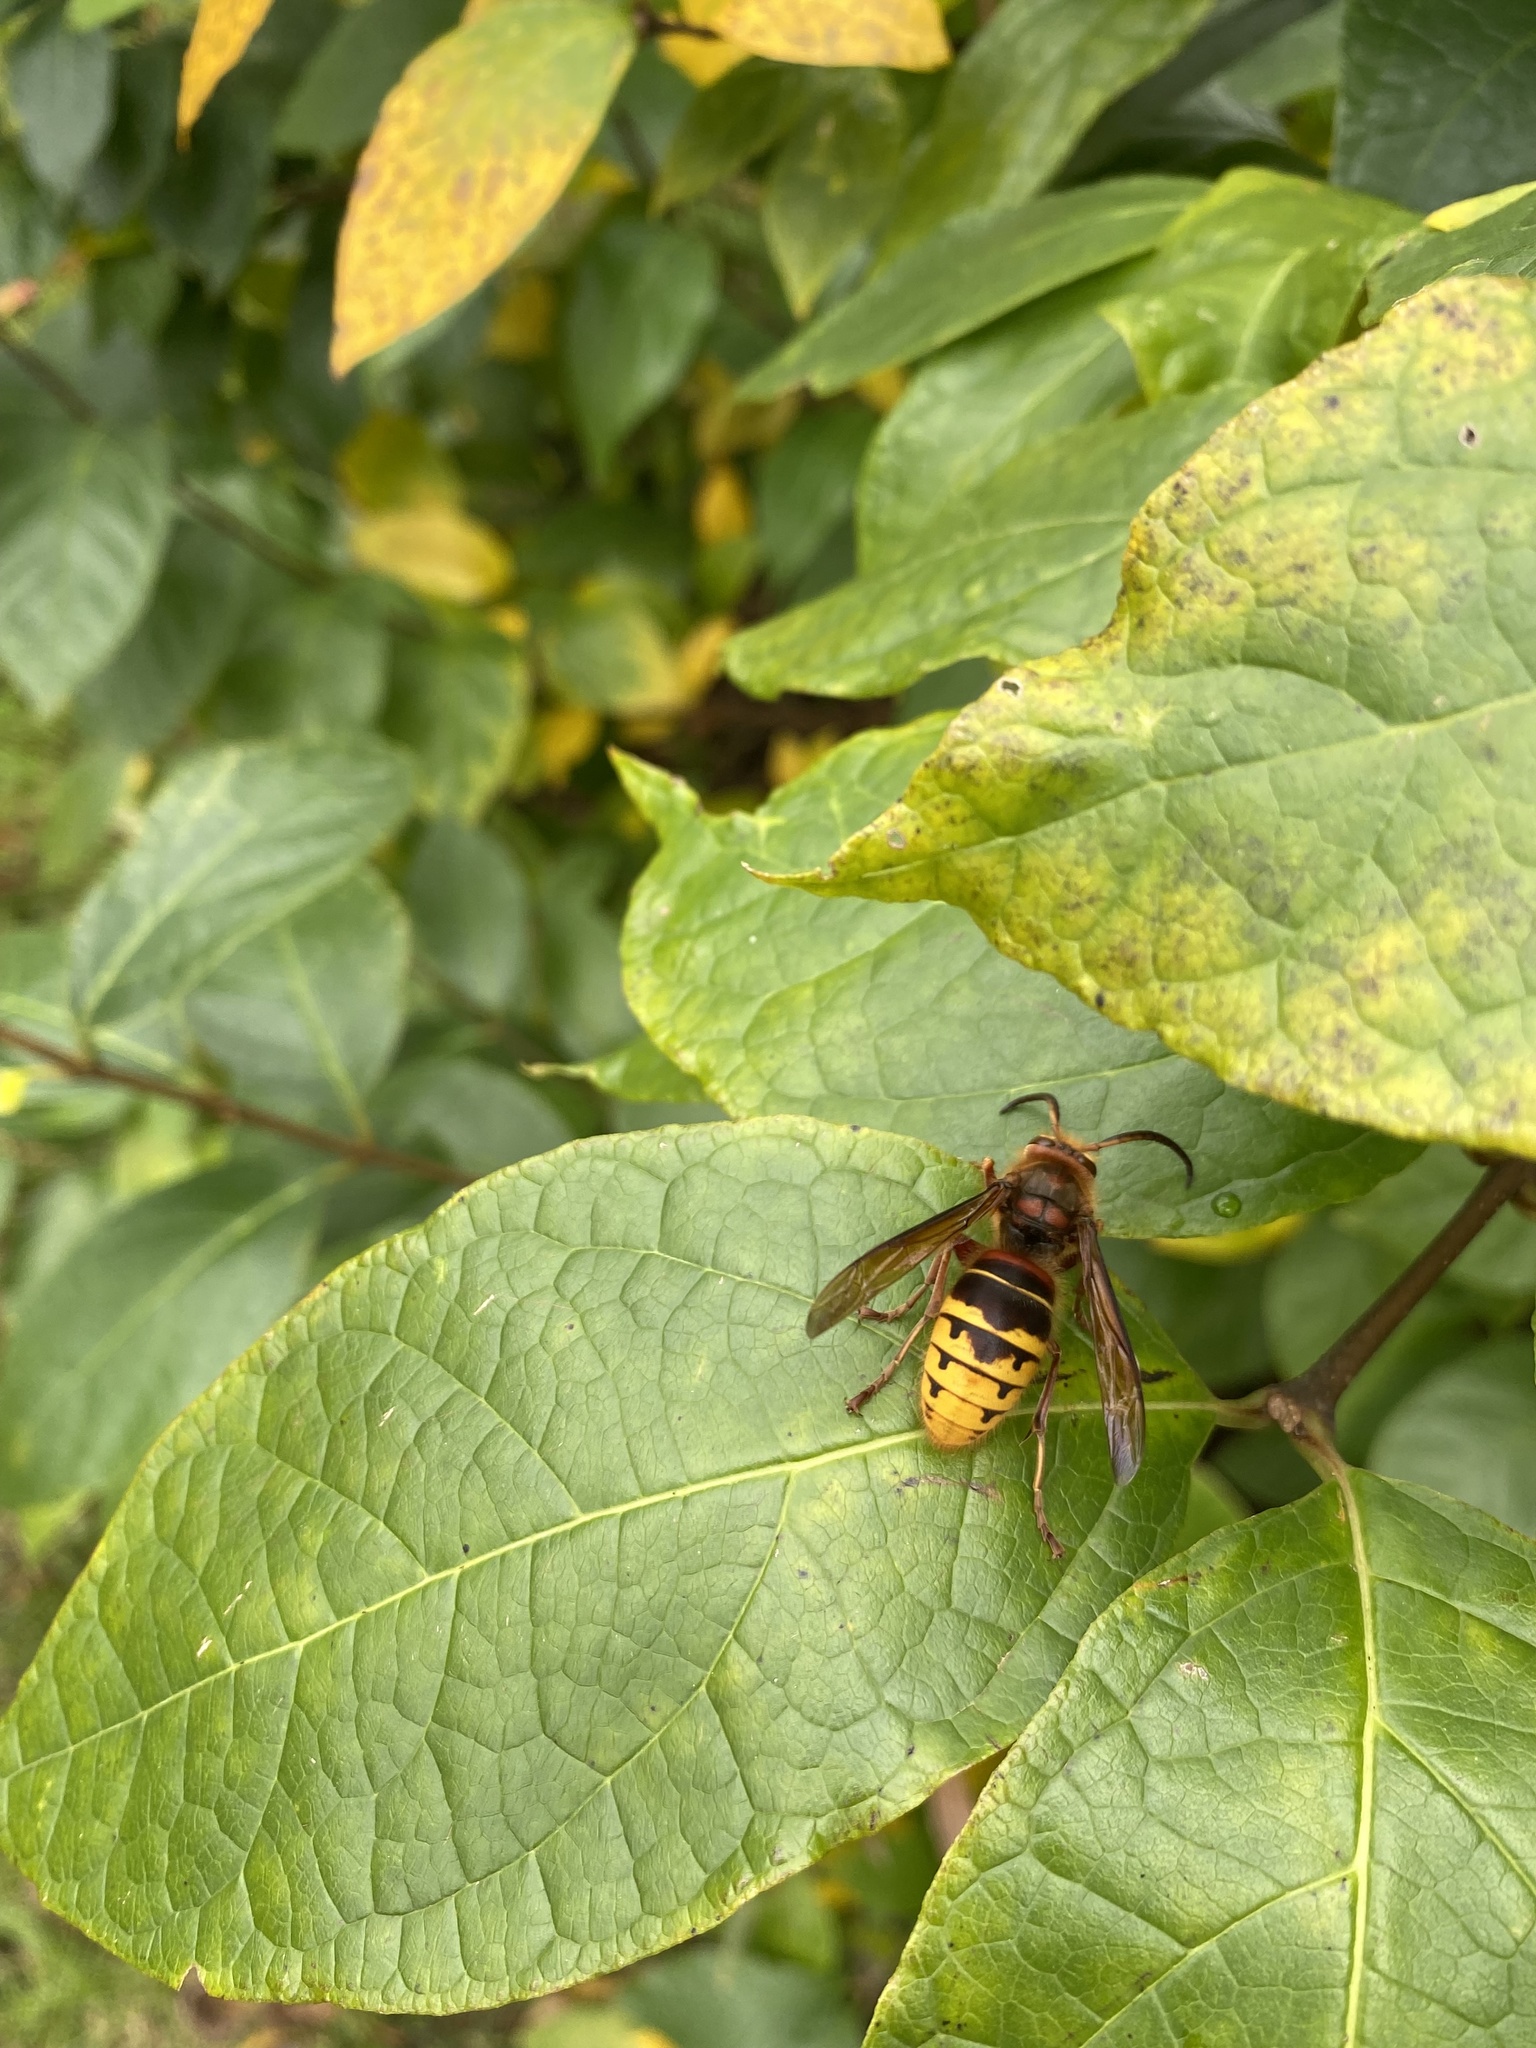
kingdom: Animalia
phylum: Arthropoda
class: Insecta
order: Hymenoptera
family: Vespidae
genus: Vespa
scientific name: Vespa crabro
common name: Hornet
